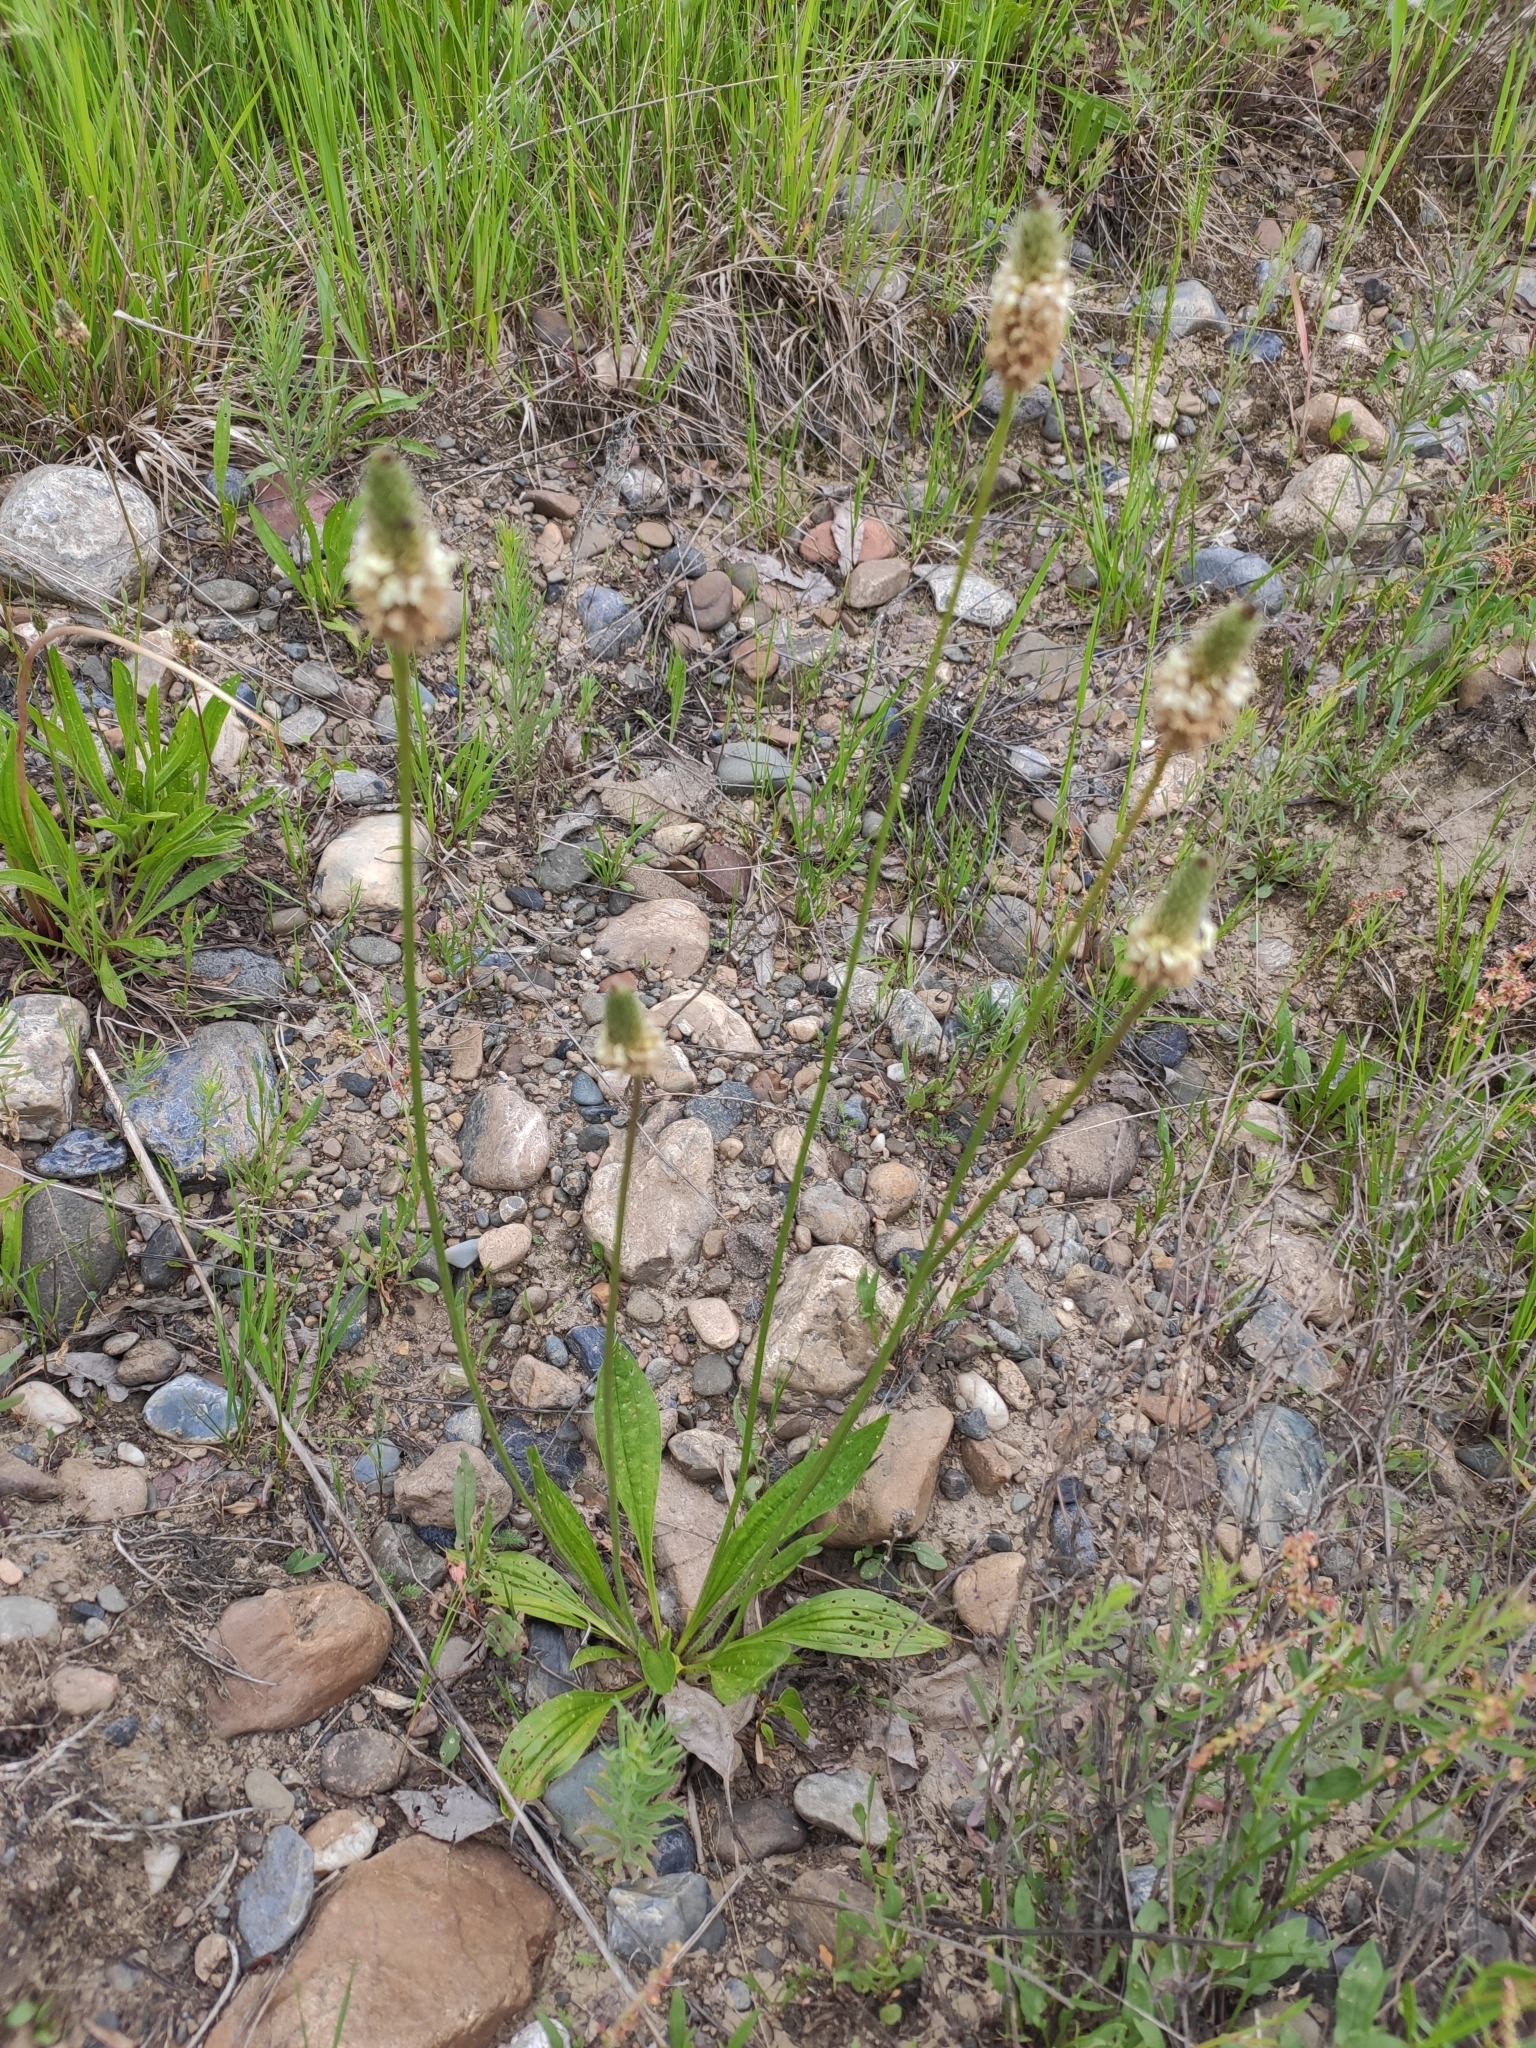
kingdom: Plantae
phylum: Tracheophyta
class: Magnoliopsida
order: Lamiales
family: Plantaginaceae
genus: Plantago
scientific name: Plantago lanceolata
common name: Ribwort plantain
